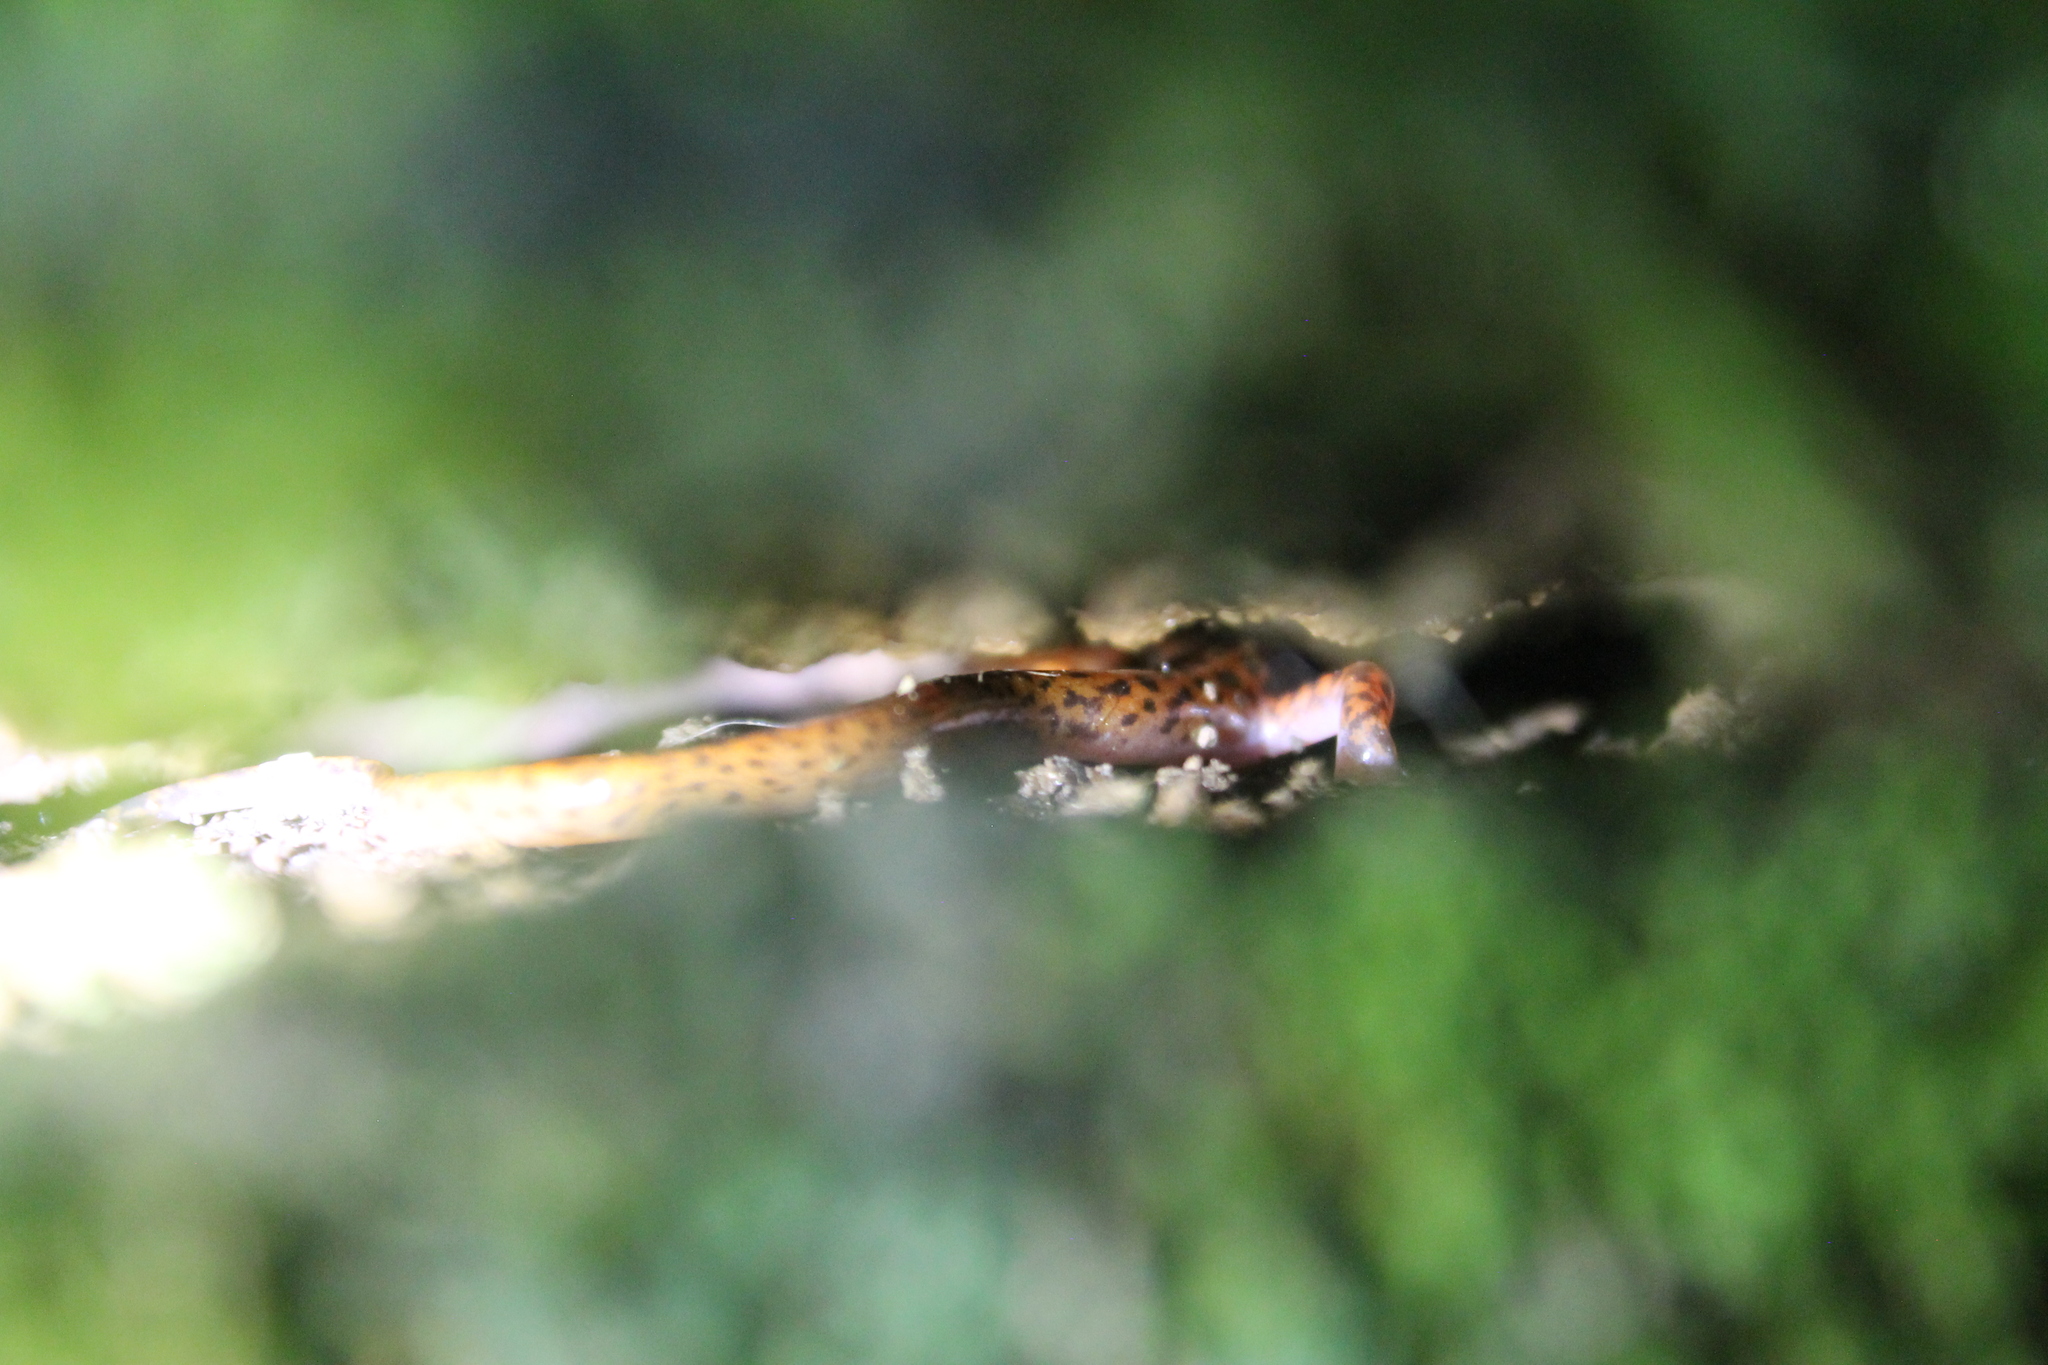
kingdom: Animalia
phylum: Chordata
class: Amphibia
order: Caudata
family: Plethodontidae
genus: Eurycea
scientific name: Eurycea lucifuga
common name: Cave salamander
